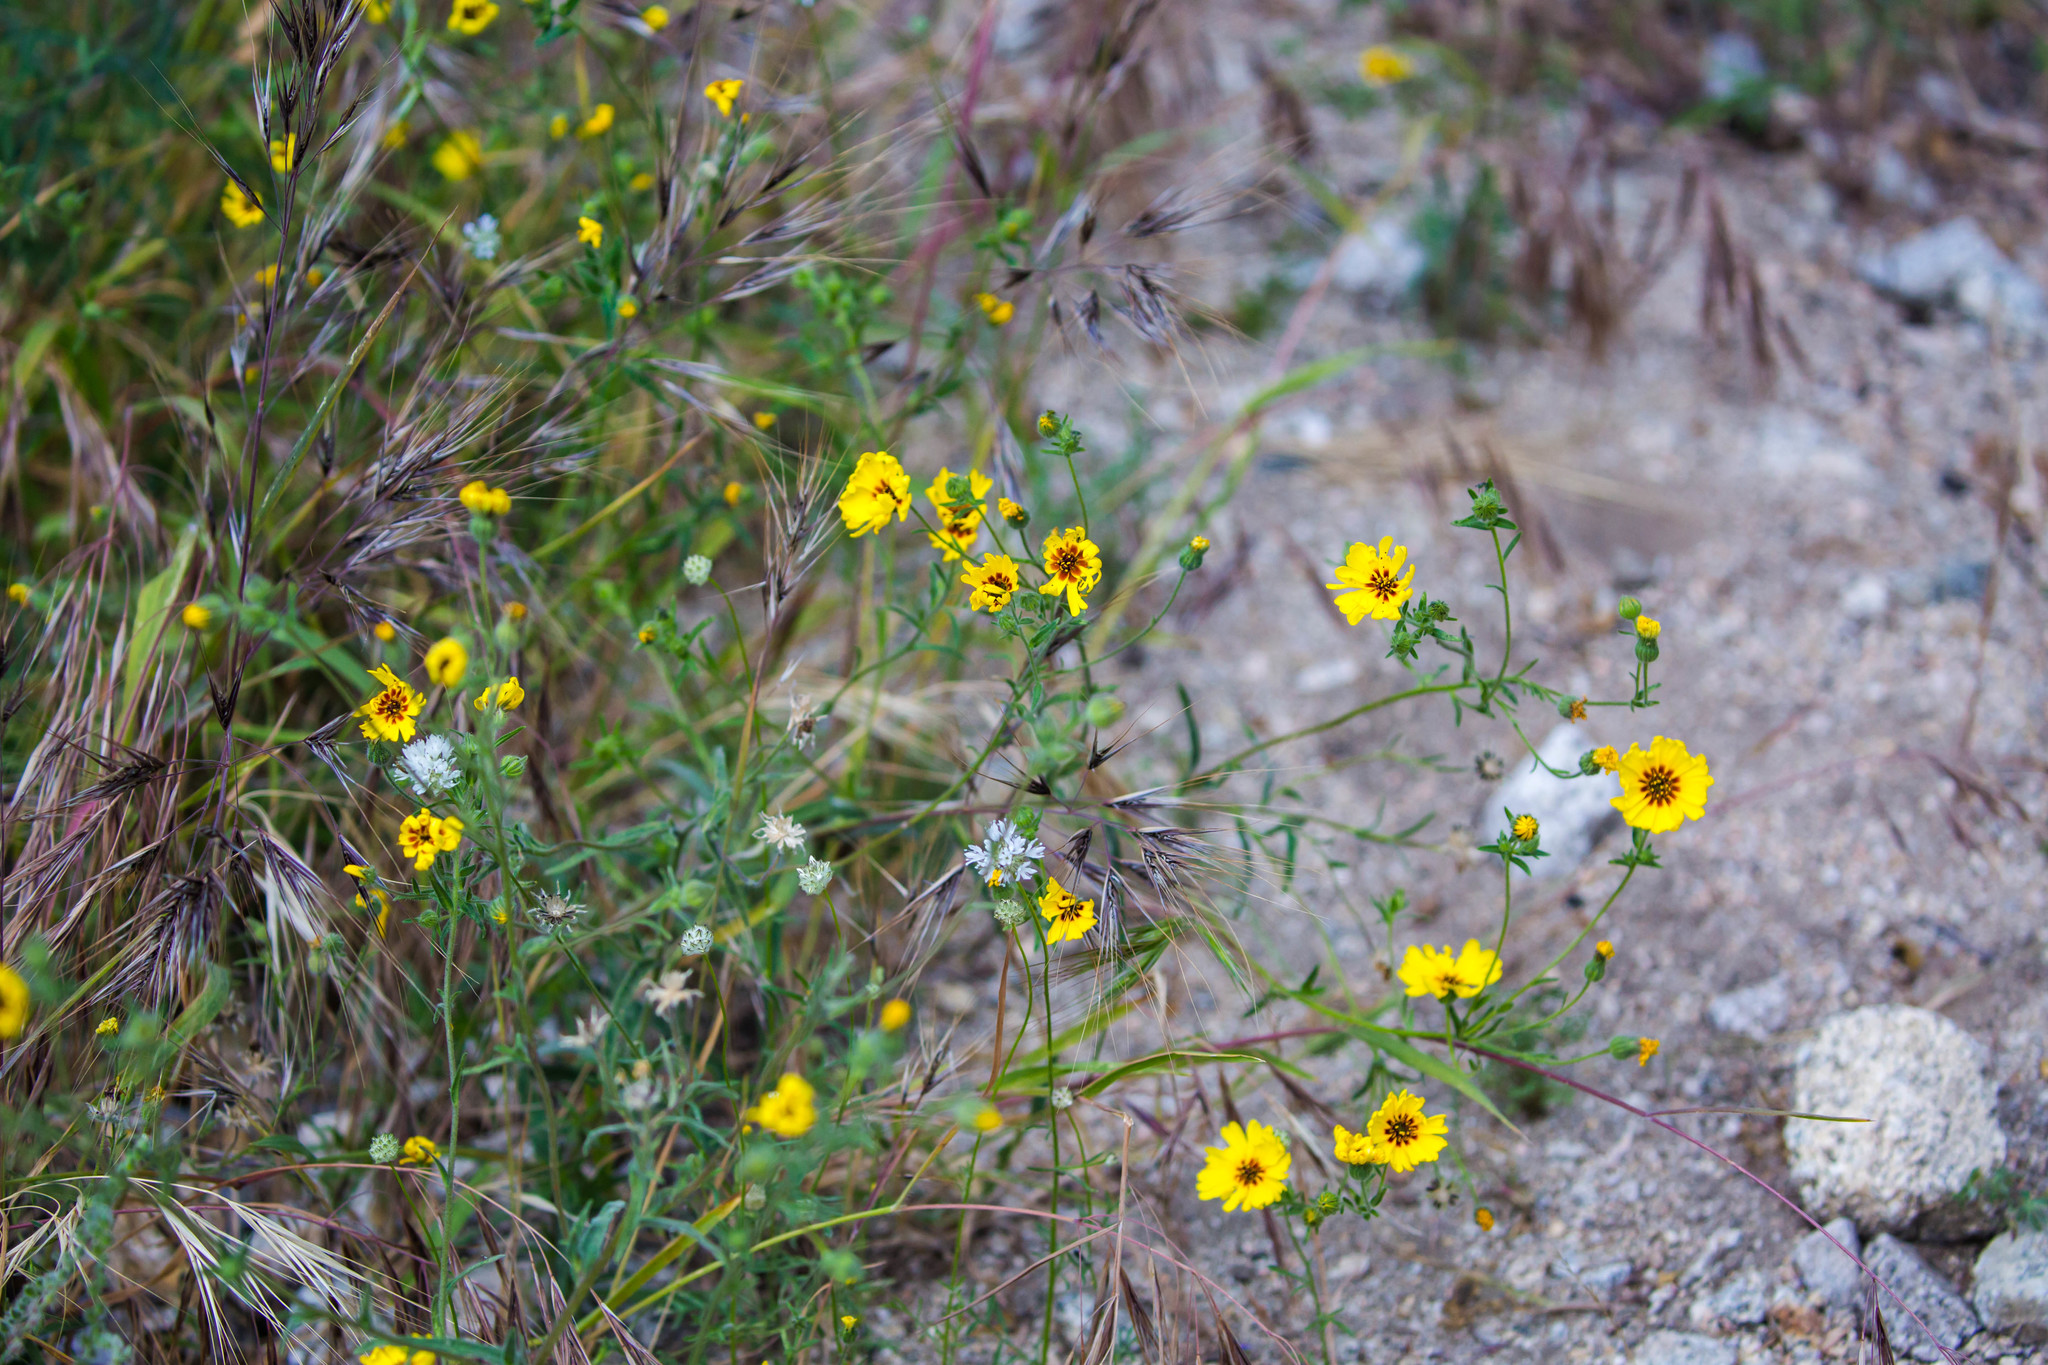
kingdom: Plantae
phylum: Tracheophyta
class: Magnoliopsida
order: Asterales
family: Asteraceae
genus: Madia
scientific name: Madia elegans
